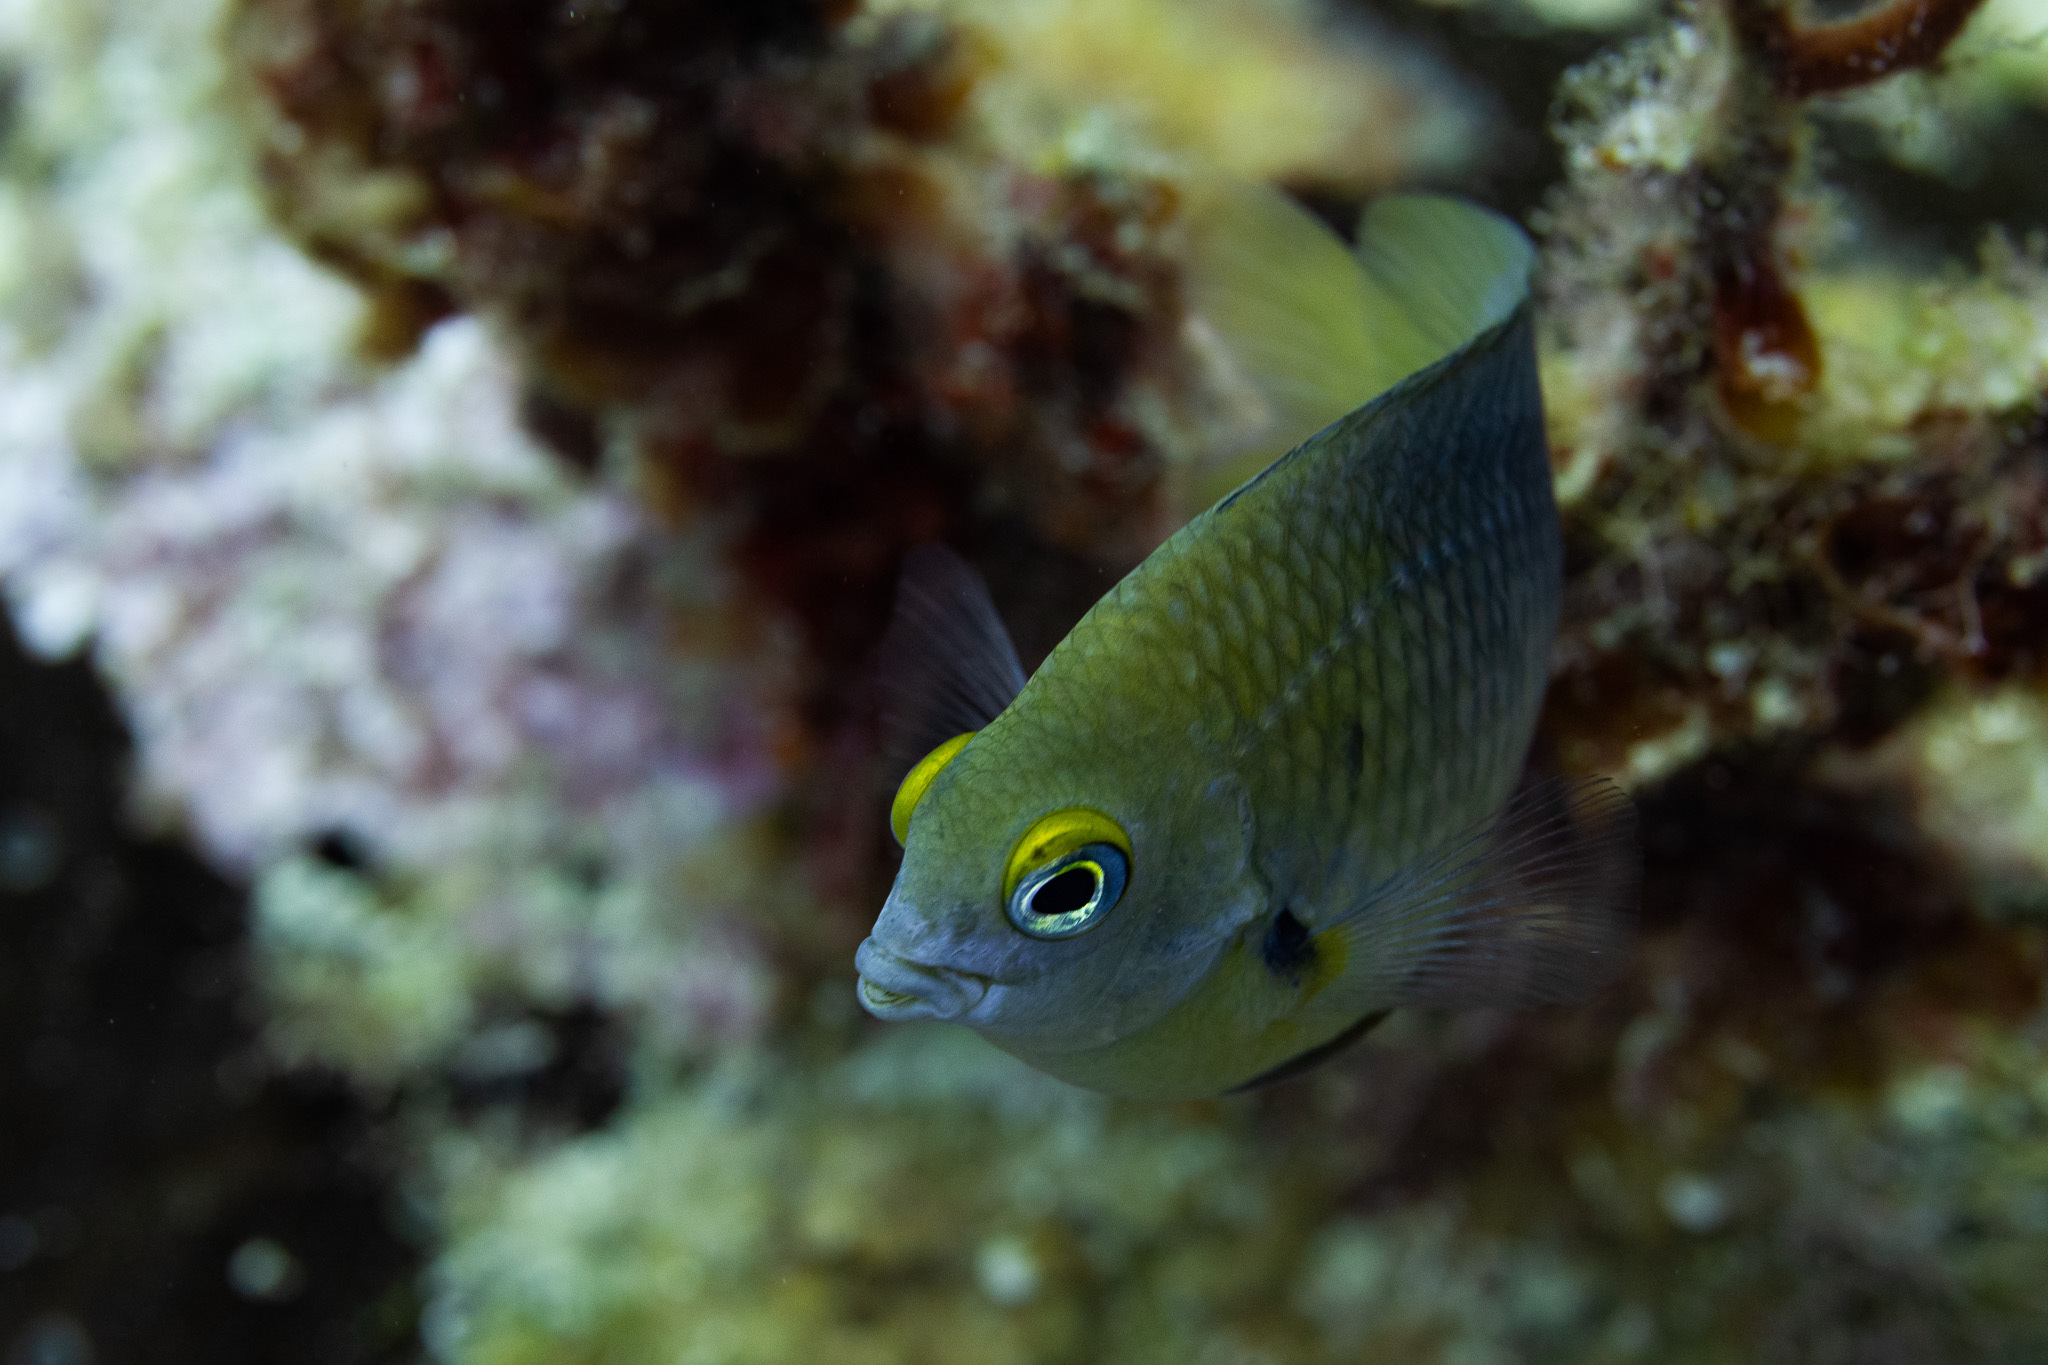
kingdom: Animalia
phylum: Chordata
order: Perciformes
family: Pomacentridae
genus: Stegastes
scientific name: Stegastes planifrons
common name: Threespot damselfish
